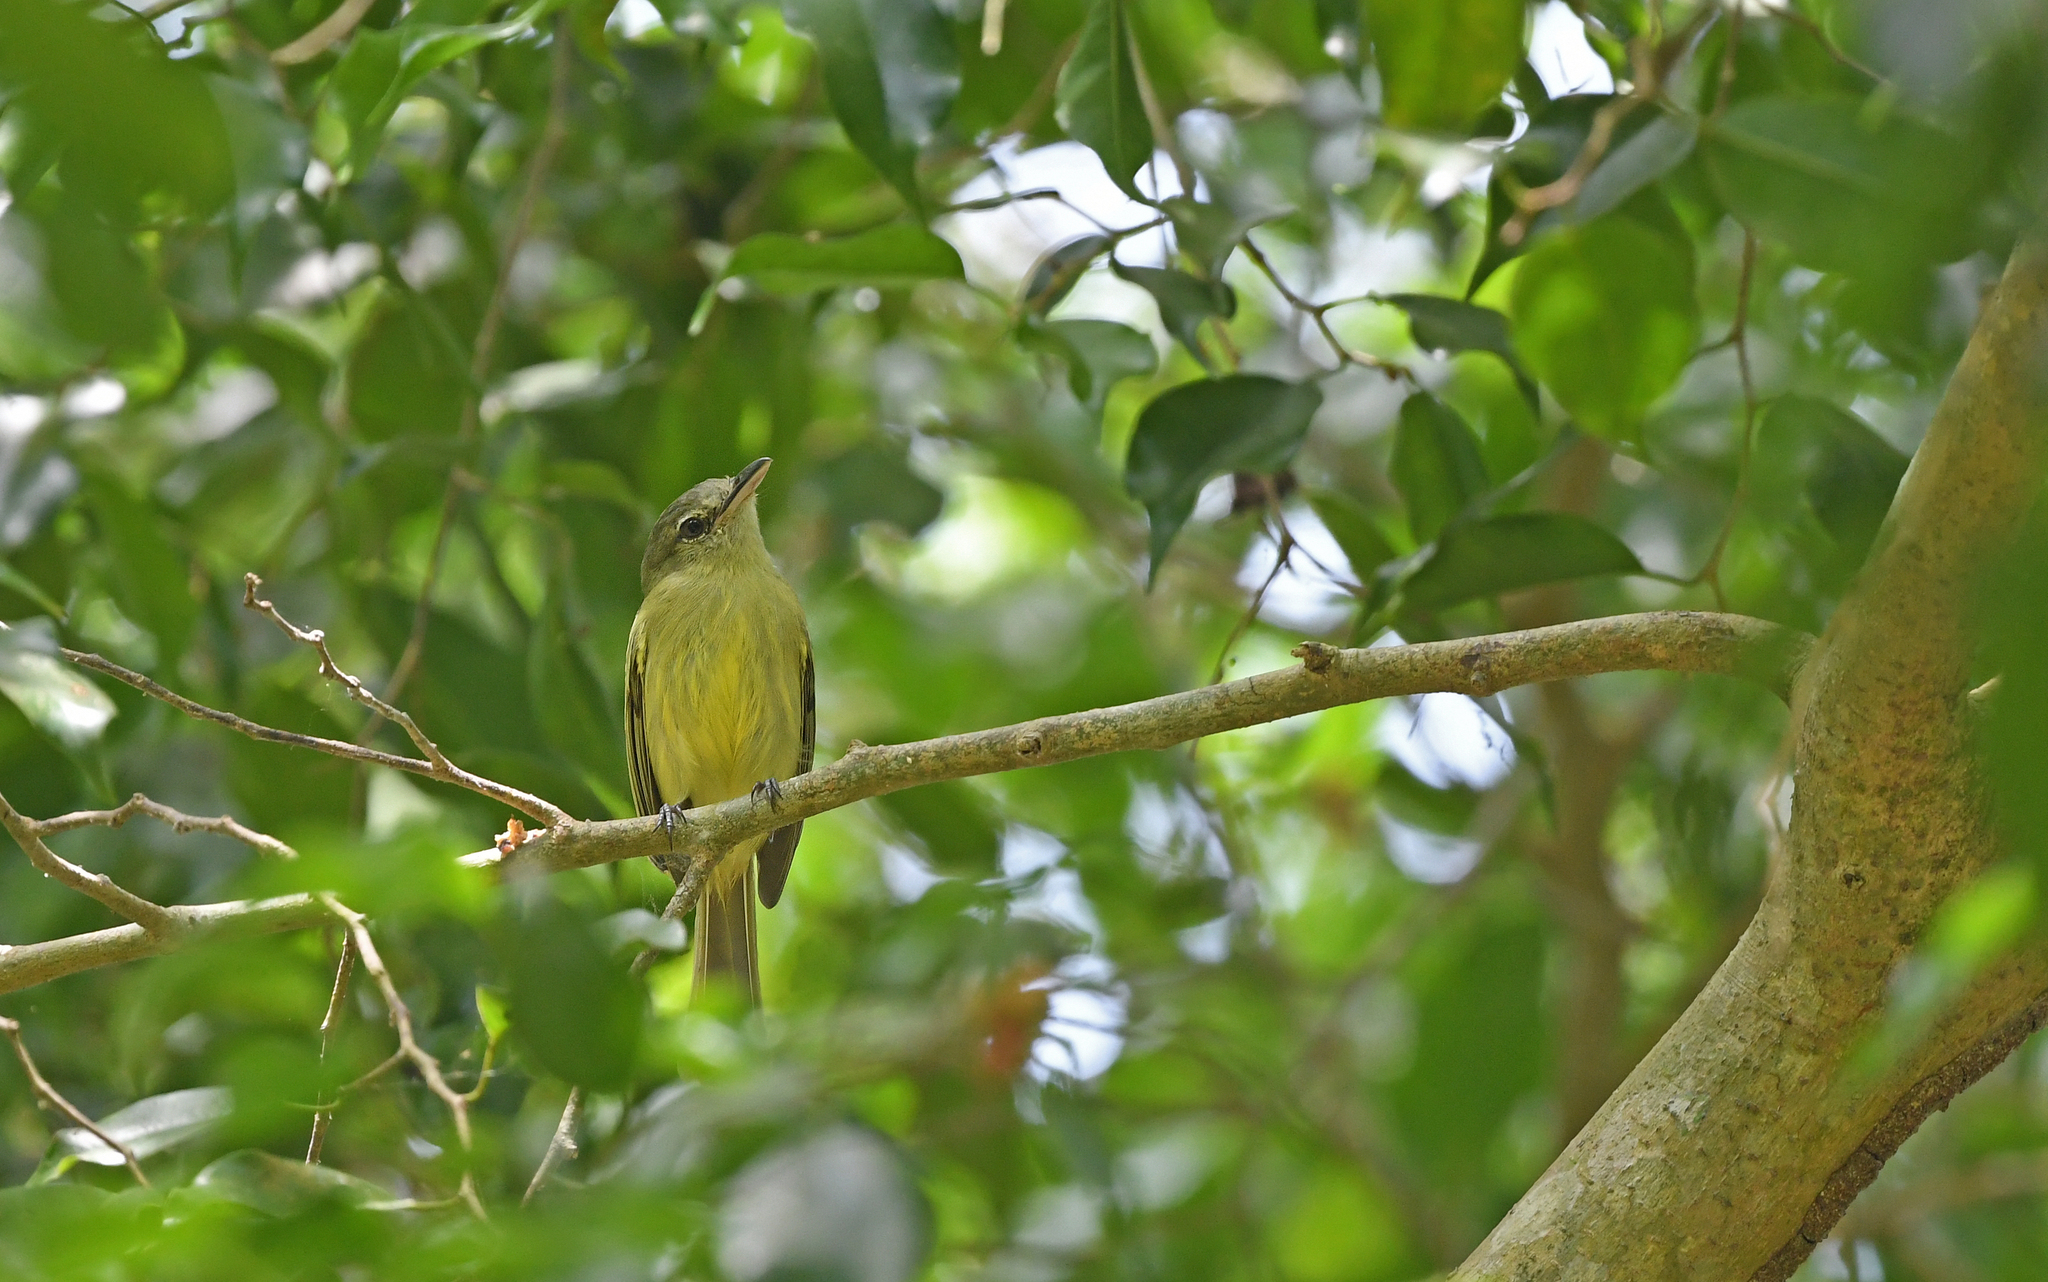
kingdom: Animalia
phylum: Chordata
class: Aves
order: Passeriformes
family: Tyrannidae
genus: Tolmomyias
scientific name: Tolmomyias sulphurescens
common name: Yellow-olive flycatcher
